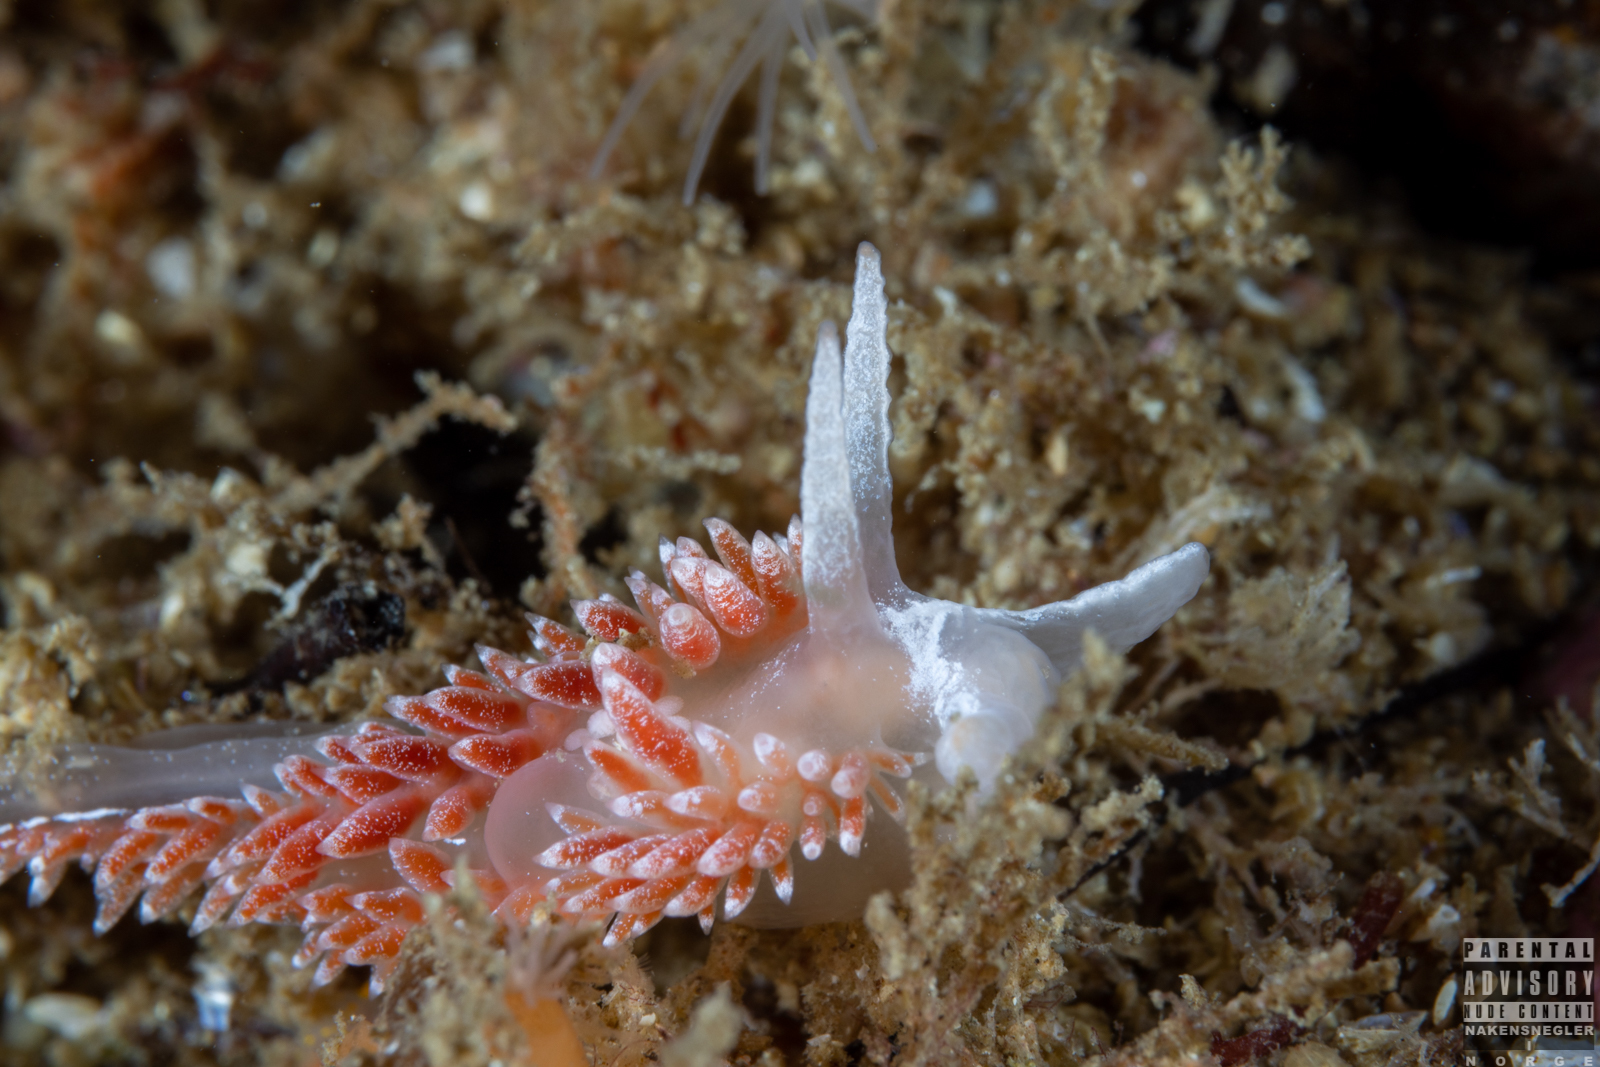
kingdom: Animalia
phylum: Mollusca
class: Gastropoda
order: Nudibranchia
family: Coryphellidae
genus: Coryphella
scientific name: Coryphella orjani
